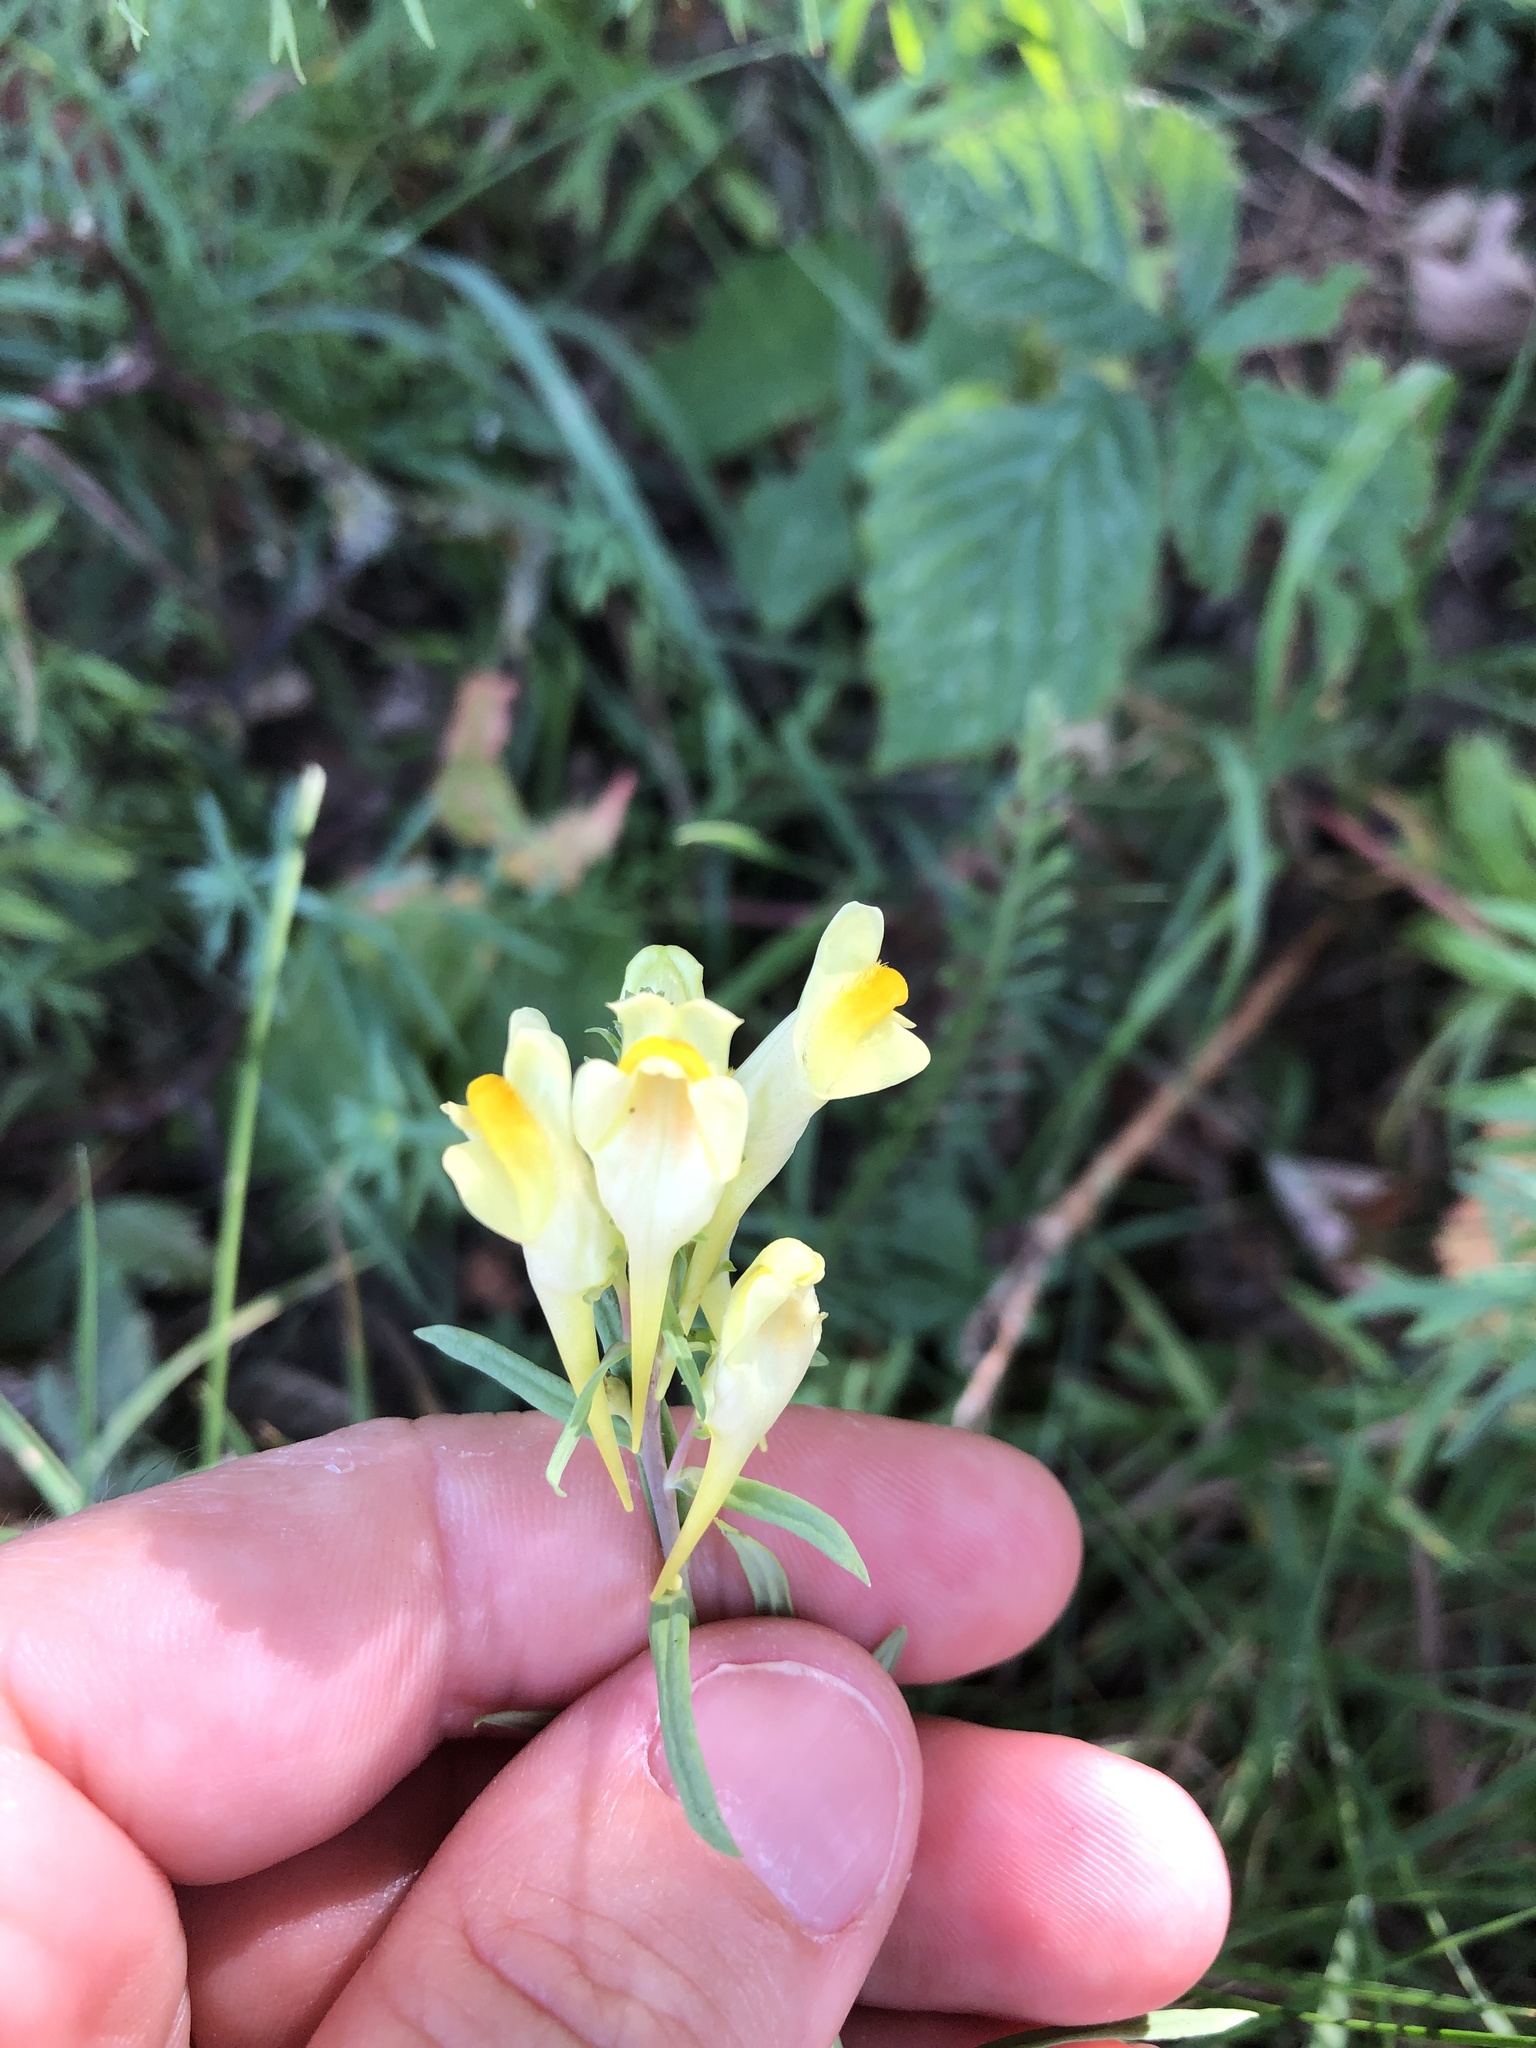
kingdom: Plantae
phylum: Tracheophyta
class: Magnoliopsida
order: Lamiales
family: Plantaginaceae
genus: Linaria
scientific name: Linaria vulgaris
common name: Butter and eggs
